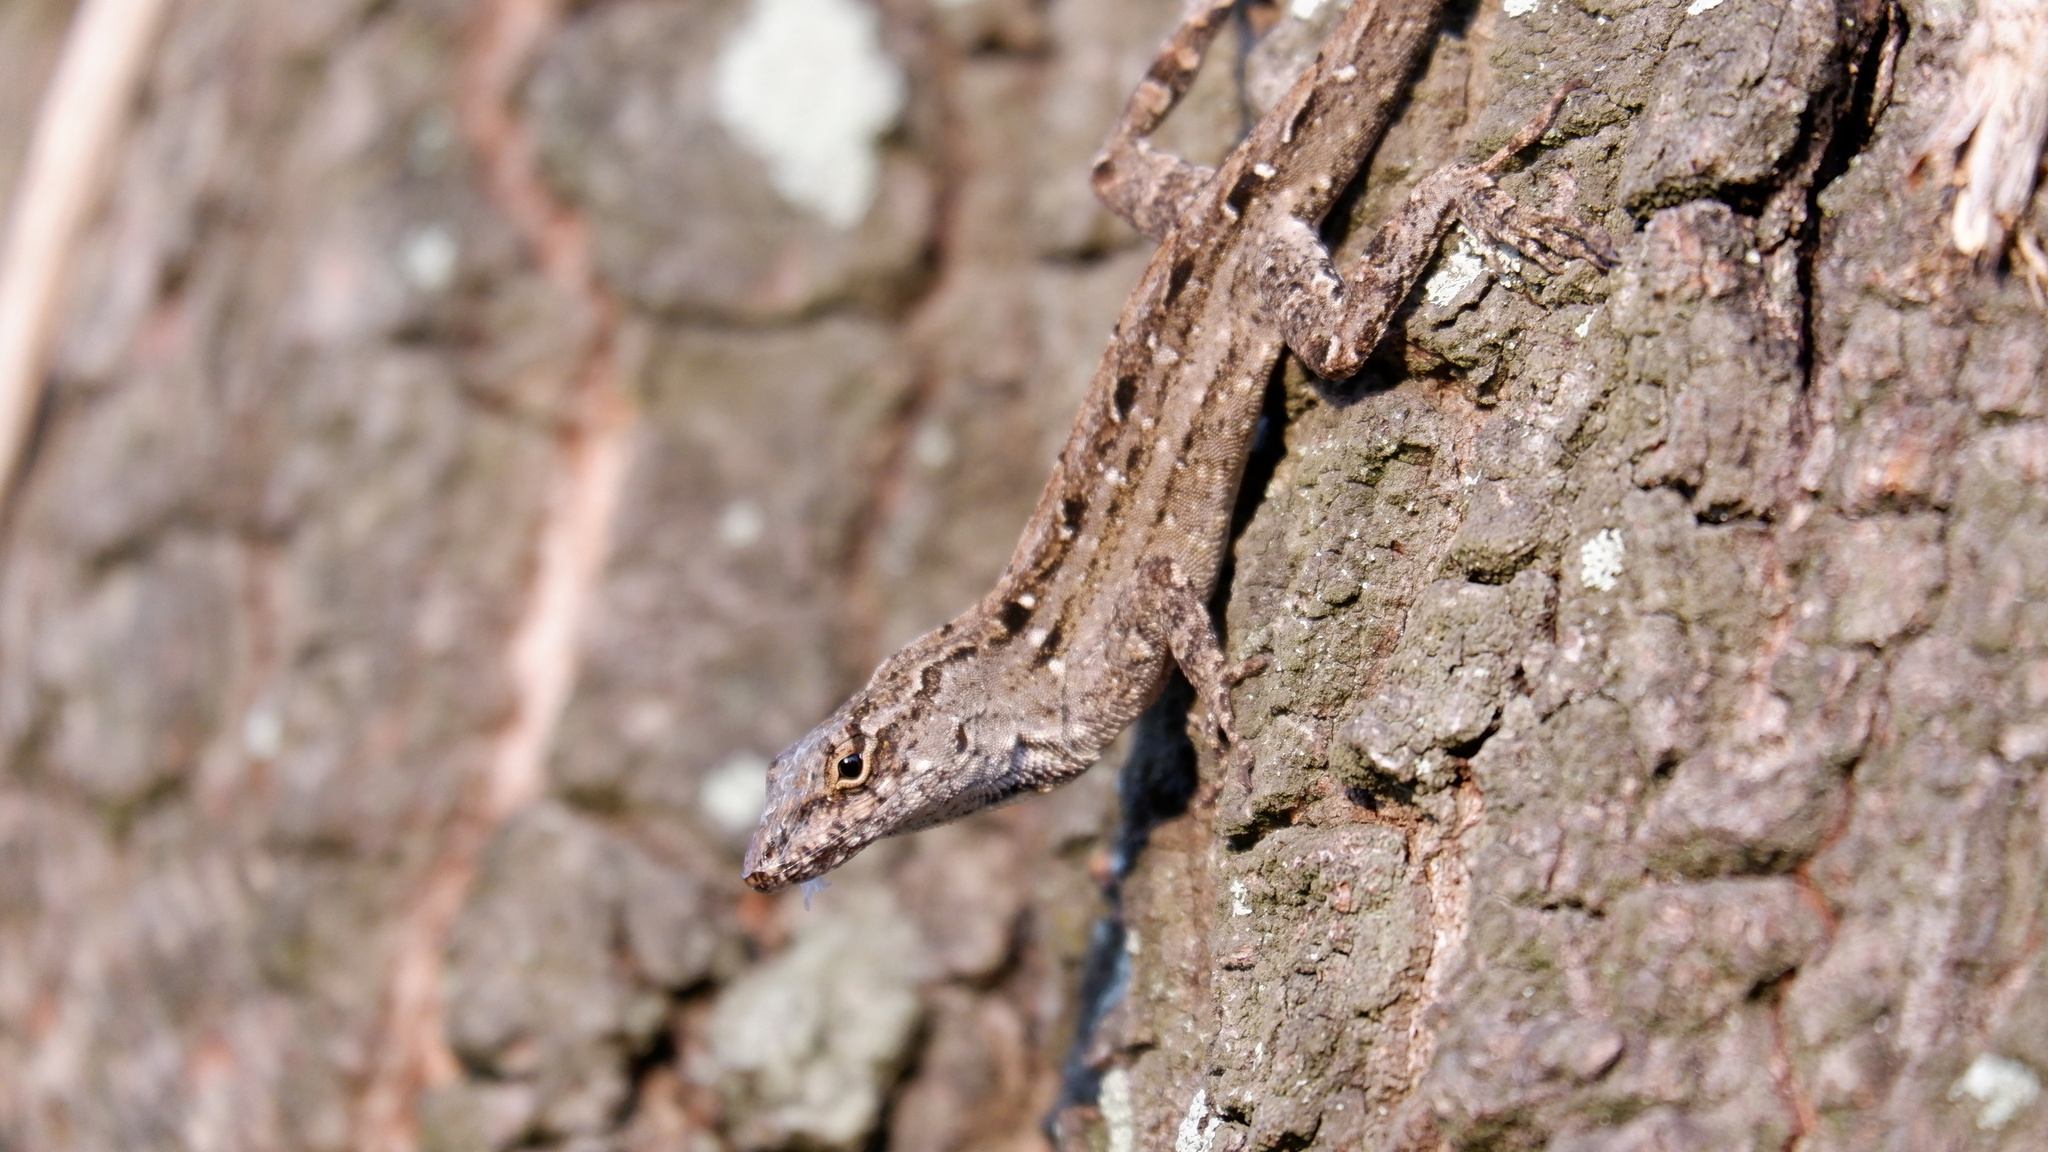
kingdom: Animalia
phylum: Chordata
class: Squamata
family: Dactyloidae
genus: Anolis
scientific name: Anolis sagrei
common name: Brown anole
